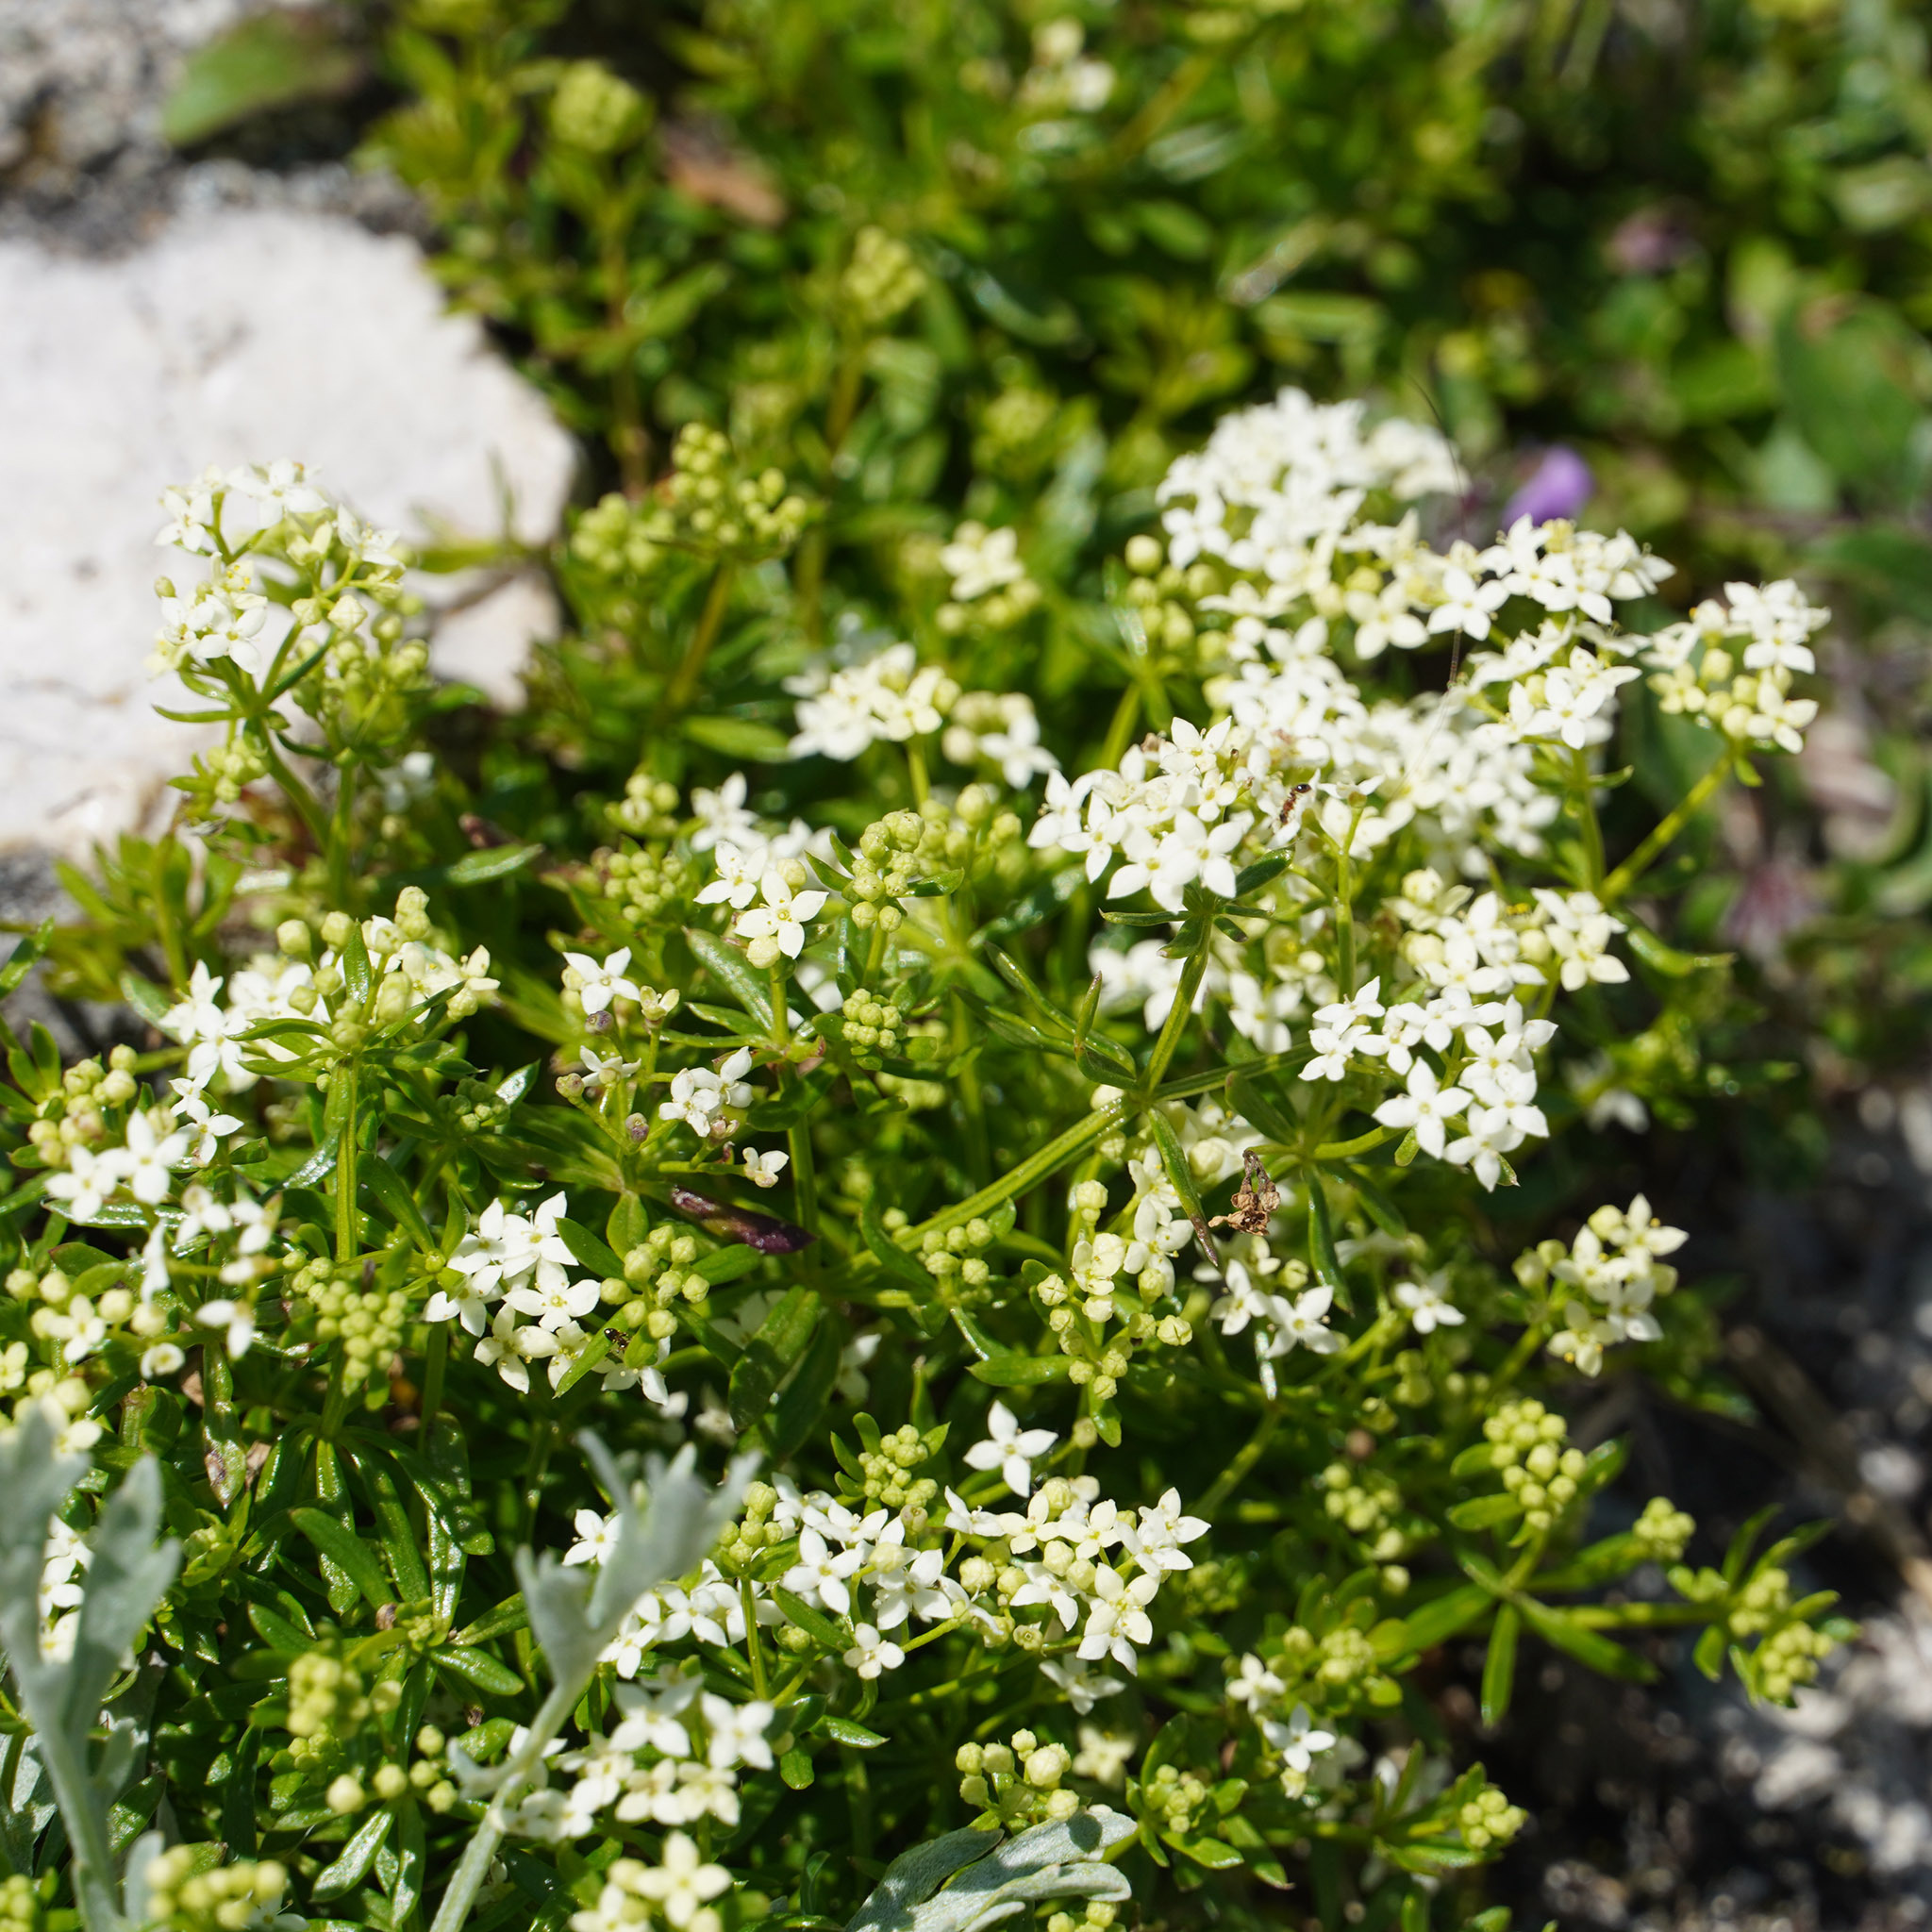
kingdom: Plantae
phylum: Tracheophyta
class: Magnoliopsida
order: Gentianales
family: Rubiaceae
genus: Galium
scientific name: Galium anisophyllon
